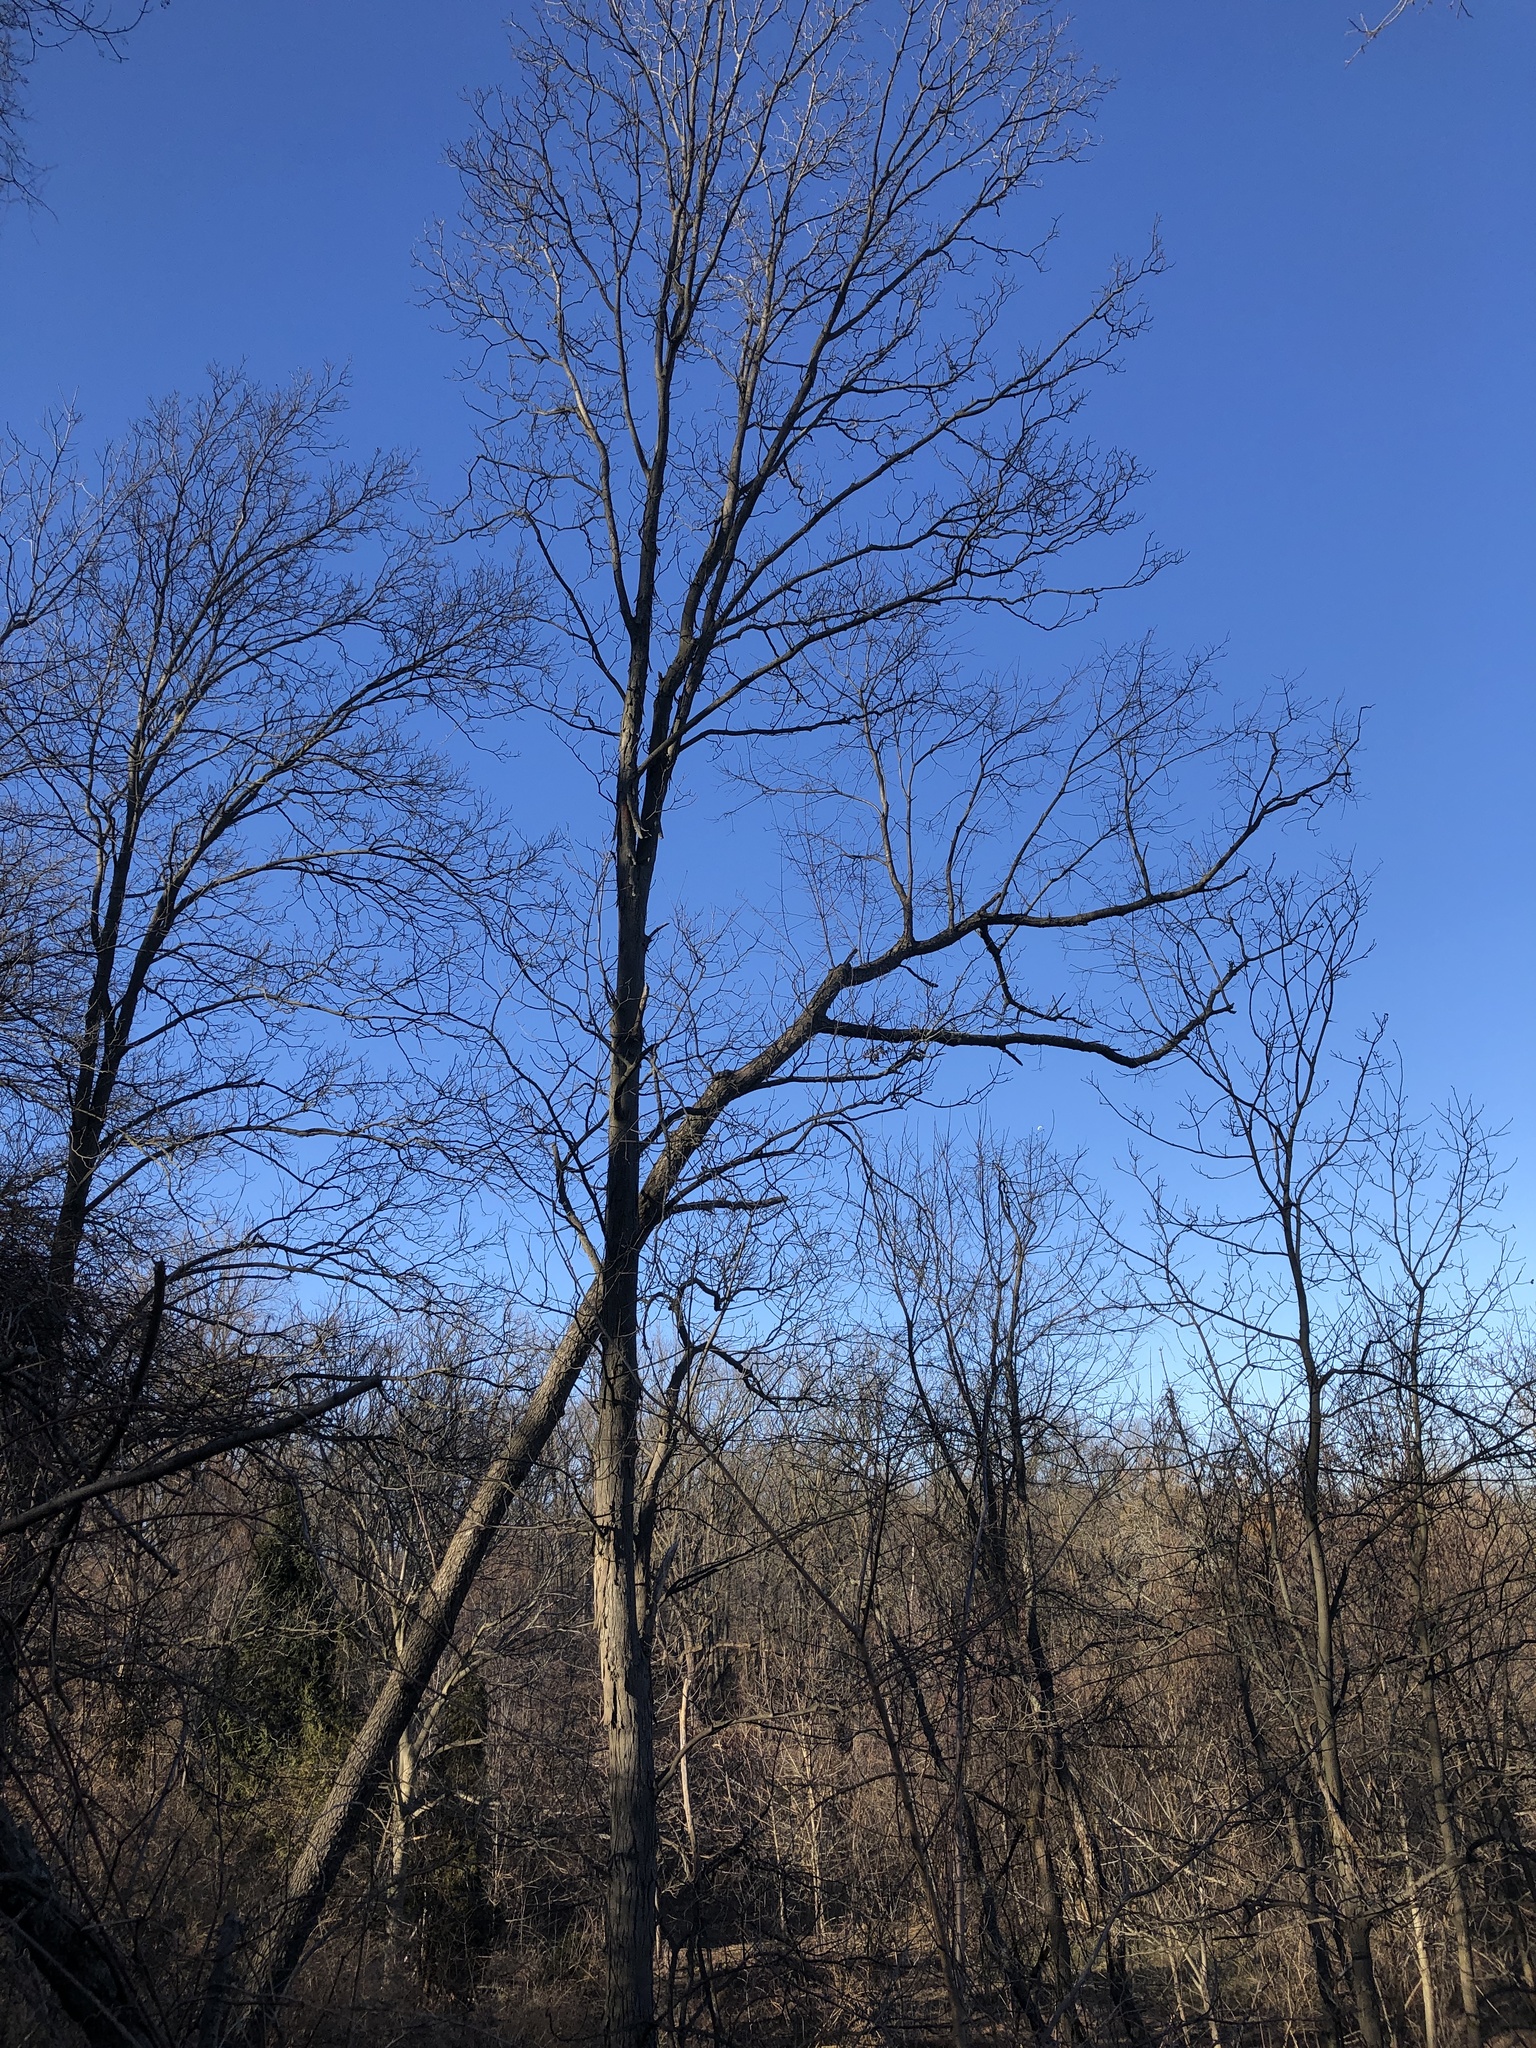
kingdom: Plantae
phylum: Tracheophyta
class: Magnoliopsida
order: Fagales
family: Juglandaceae
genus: Carya
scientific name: Carya ovata
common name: Shagbark hickory
